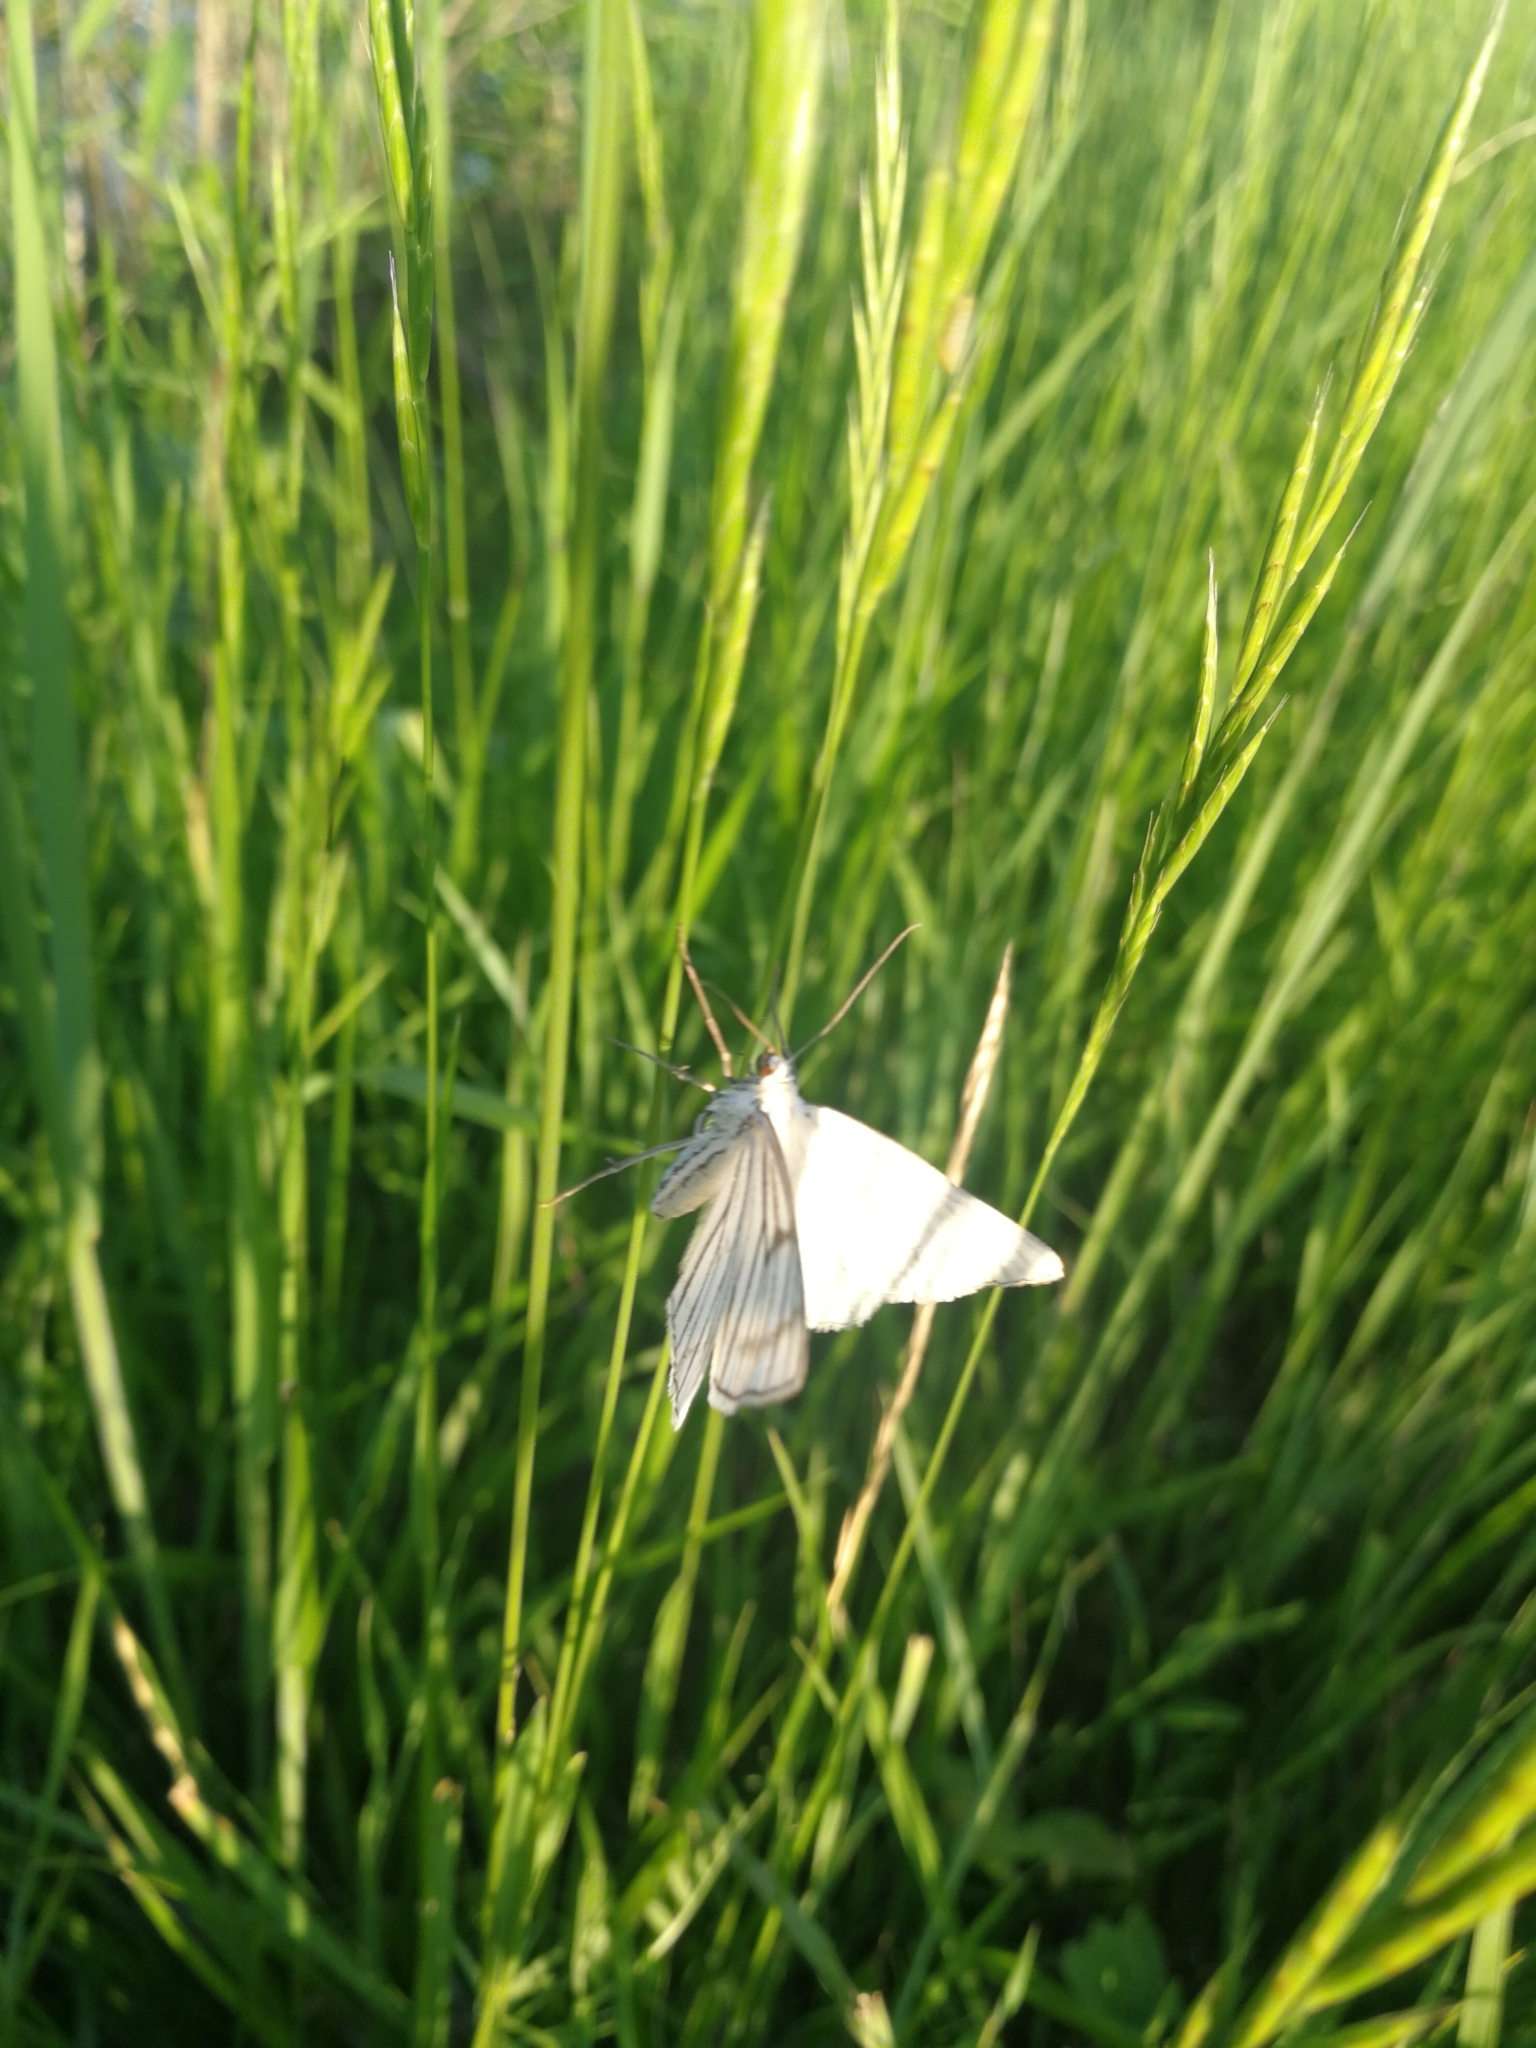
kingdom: Animalia
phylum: Arthropoda
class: Insecta
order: Lepidoptera
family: Geometridae
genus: Siona
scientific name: Siona lineata
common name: Black-veined moth
